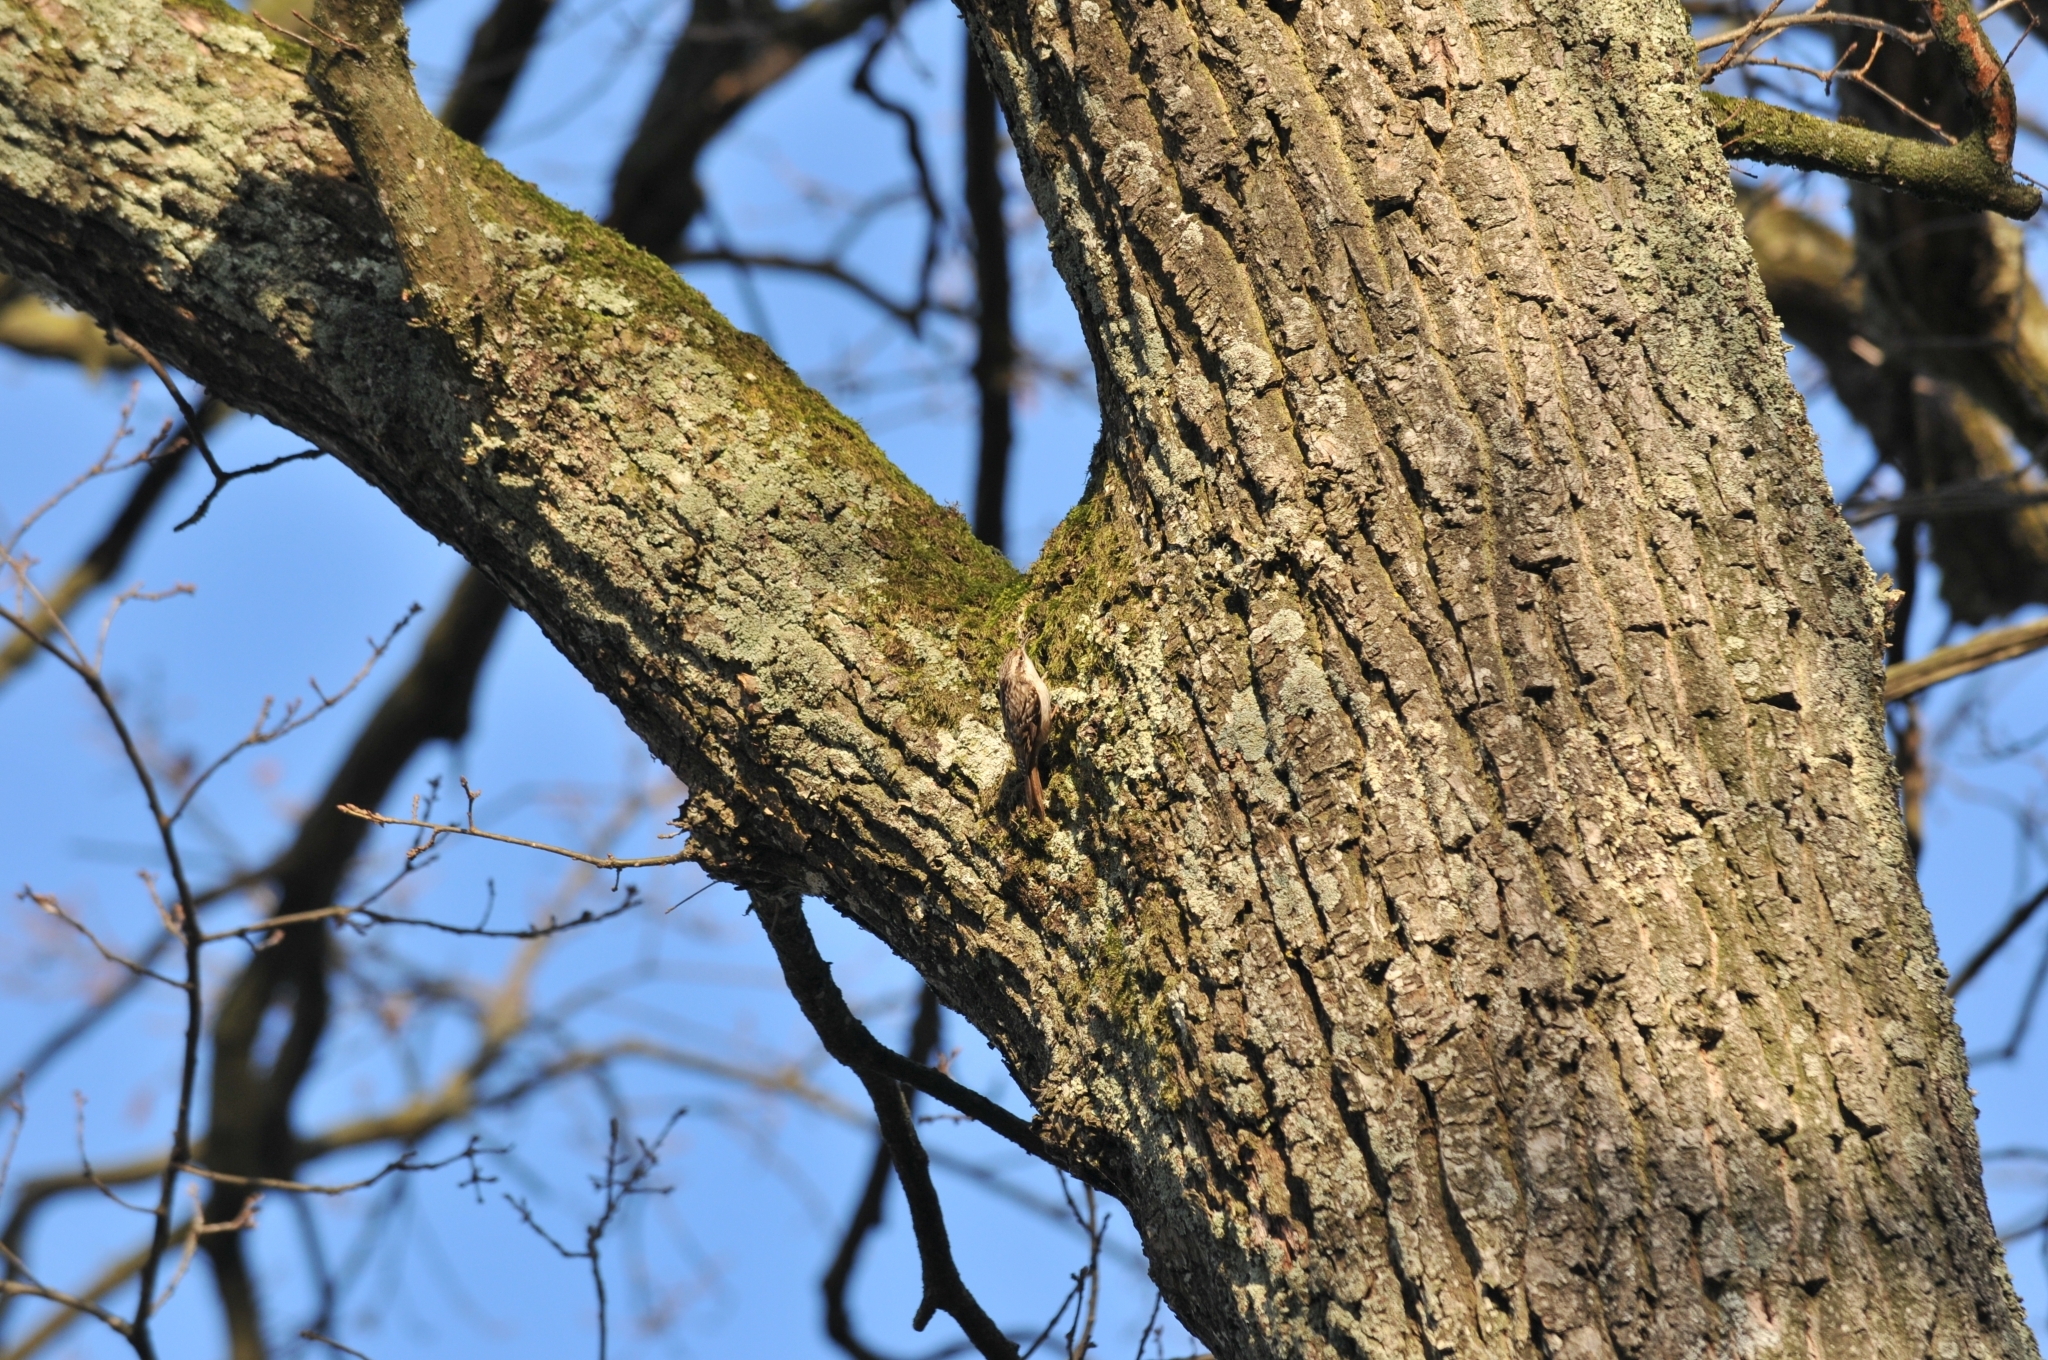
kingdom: Animalia
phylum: Chordata
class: Aves
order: Passeriformes
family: Certhiidae
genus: Certhia
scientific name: Certhia brachydactyla
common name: Short-toed treecreeper
